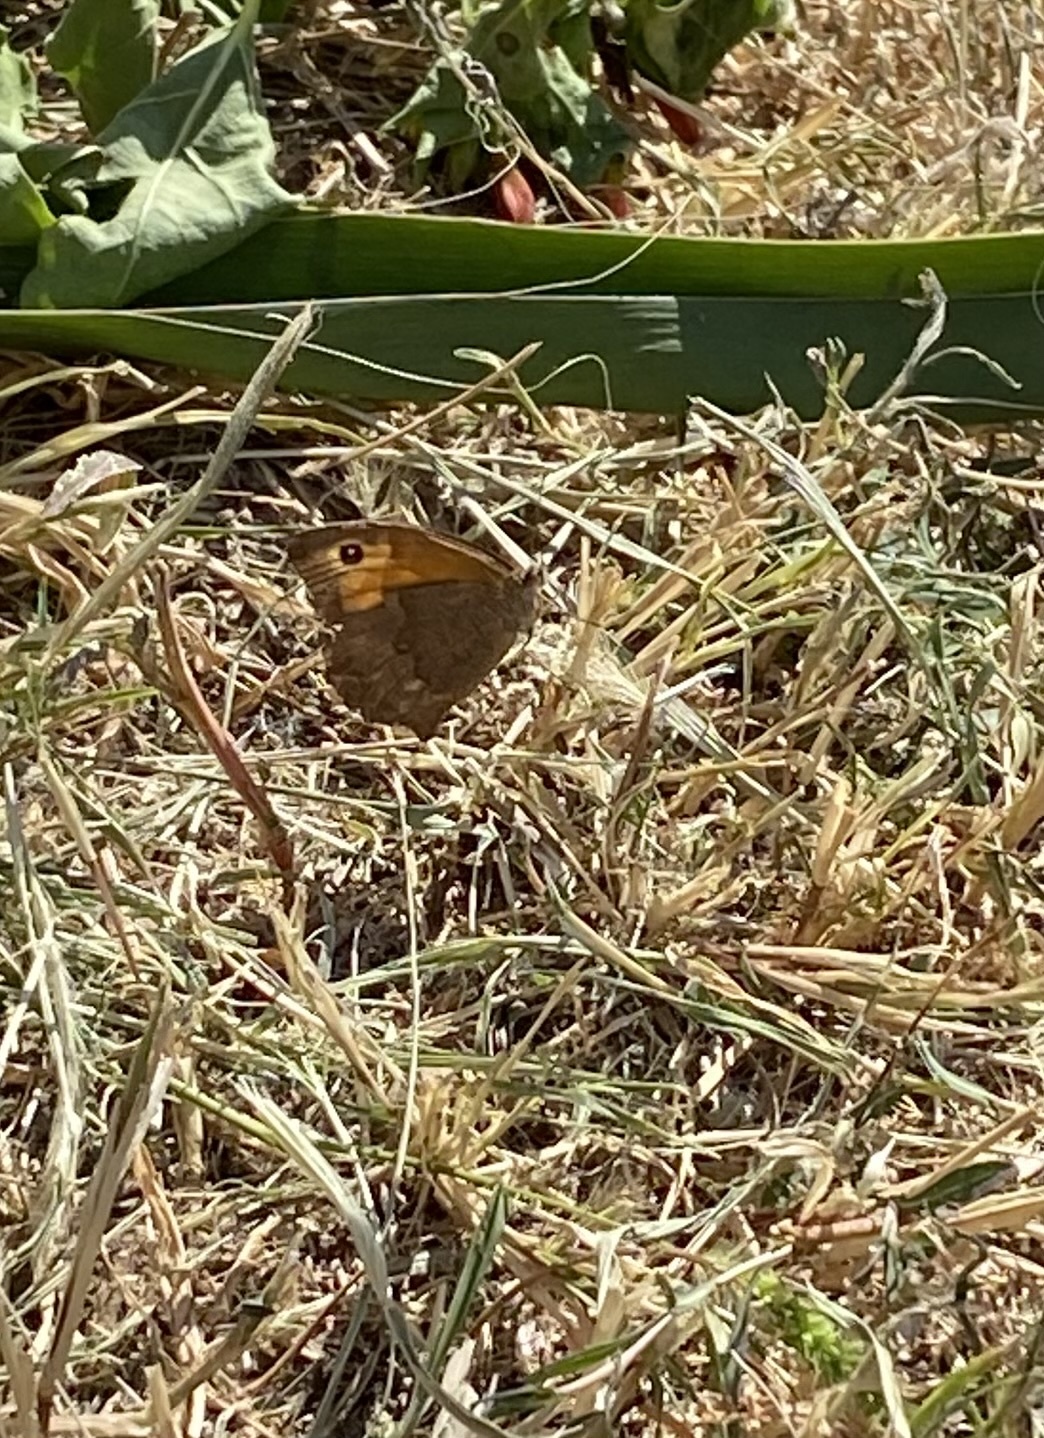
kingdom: Animalia
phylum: Arthropoda
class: Insecta
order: Lepidoptera
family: Nymphalidae
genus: Maniola
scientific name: Maniola jurtina
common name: Meadow brown
